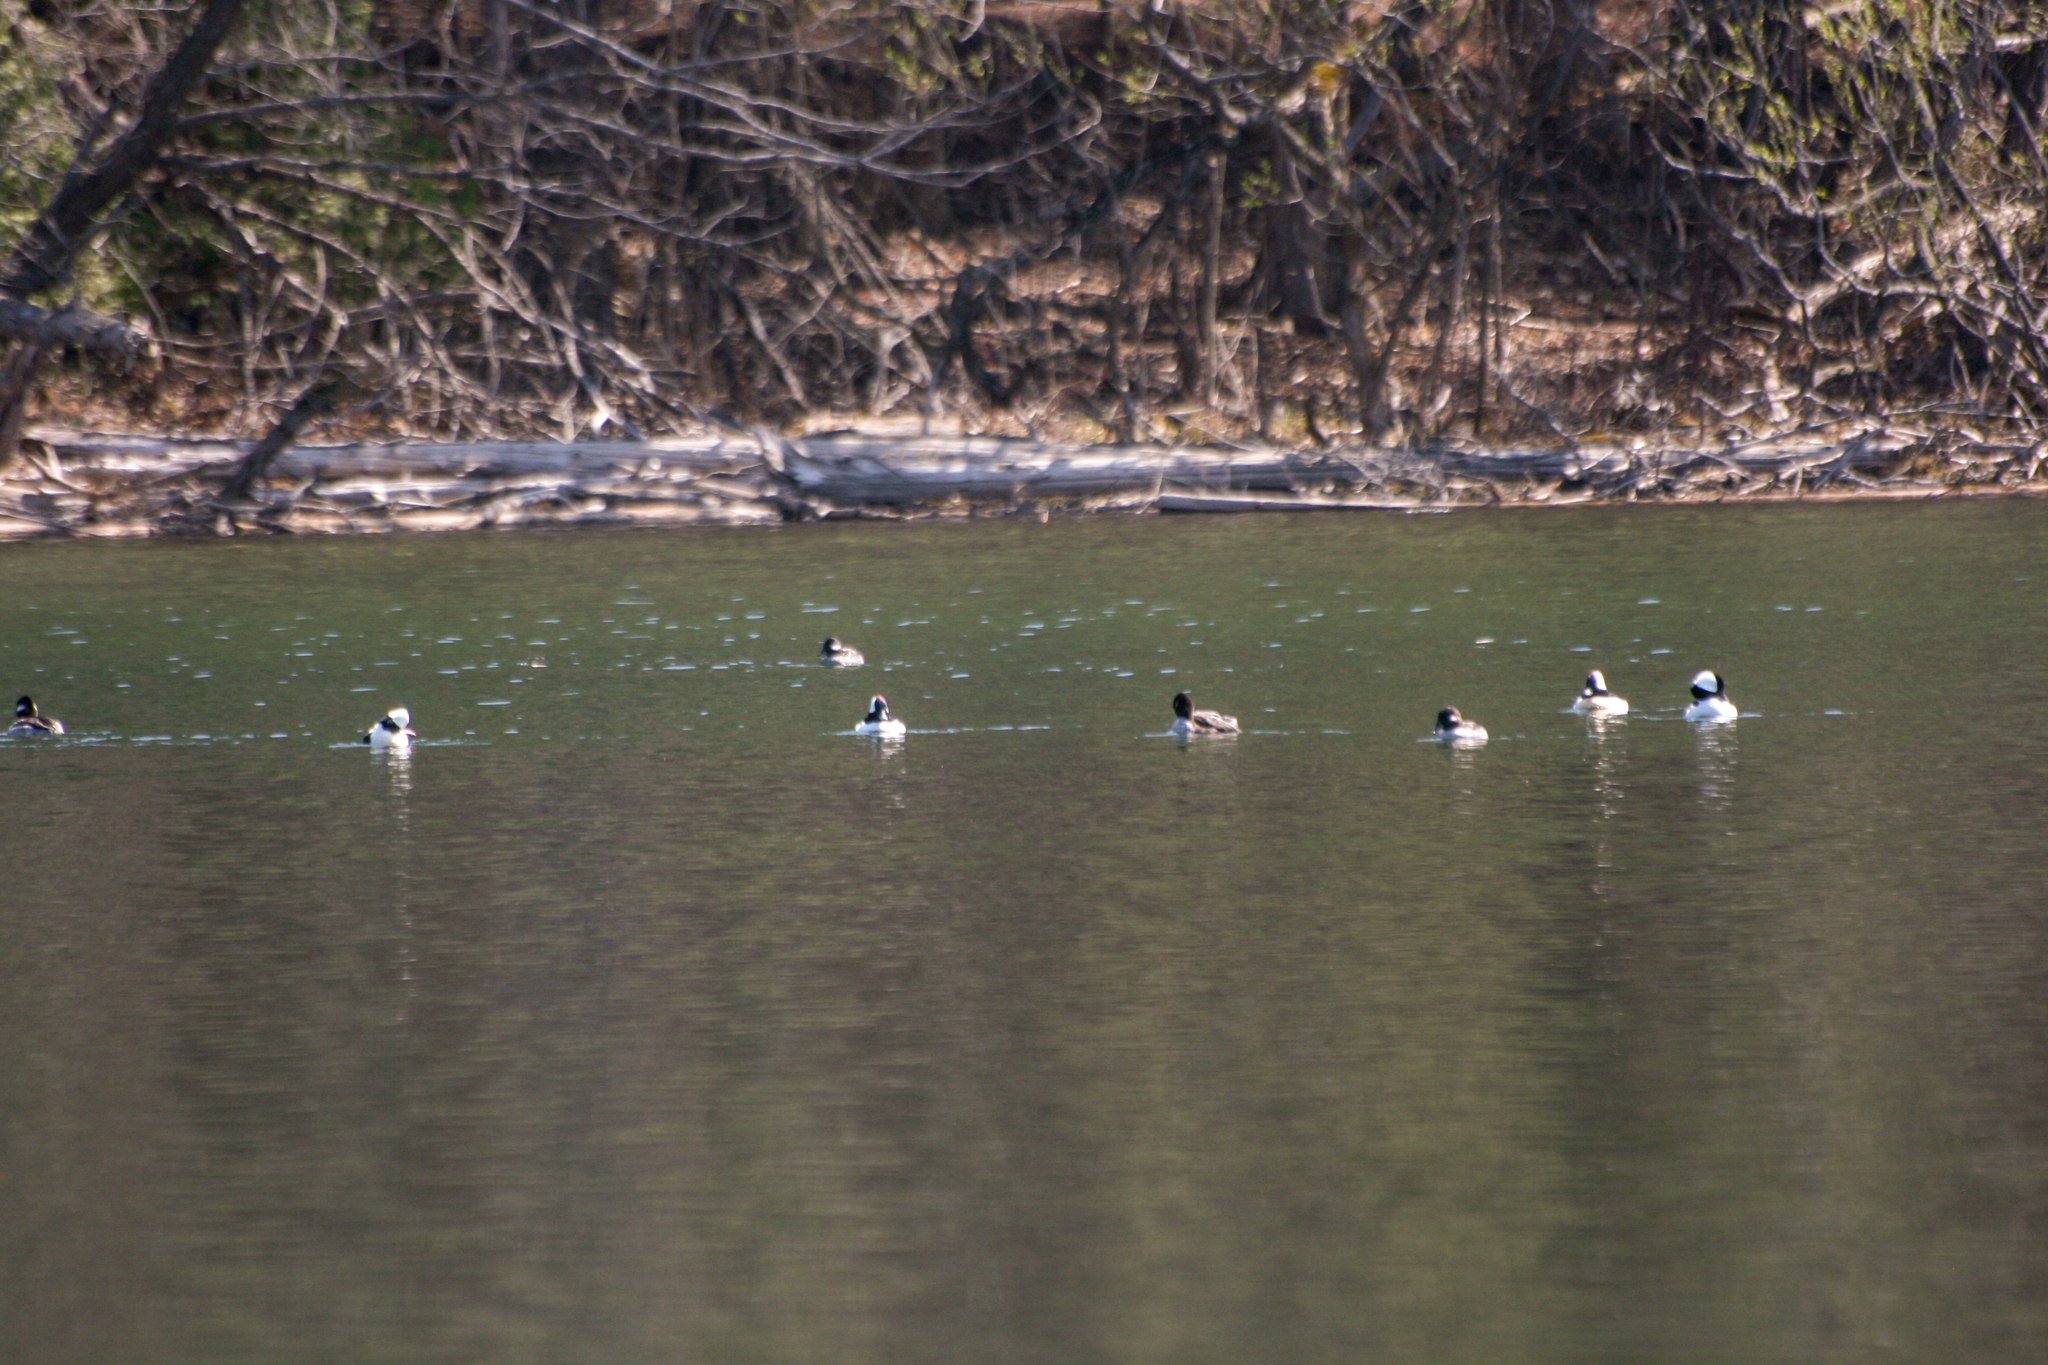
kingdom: Animalia
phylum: Chordata
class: Aves
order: Anseriformes
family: Anatidae
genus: Bucephala
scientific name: Bucephala albeola
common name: Bufflehead
